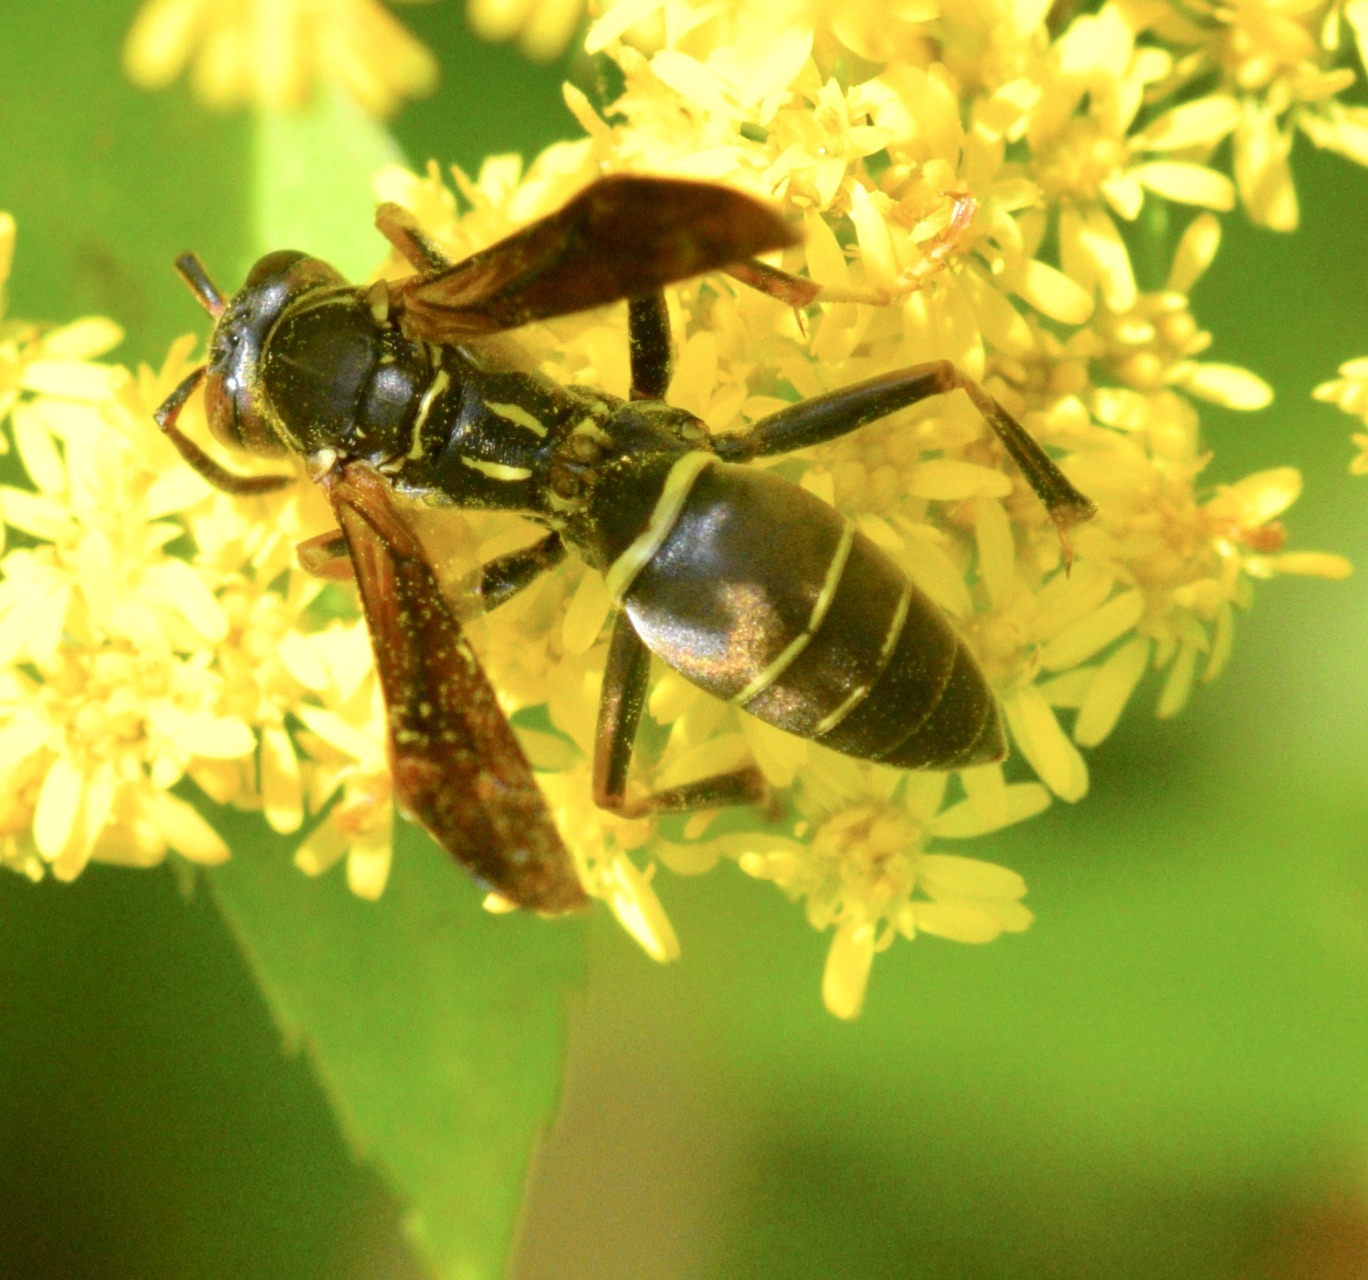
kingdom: Animalia
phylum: Arthropoda
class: Insecta
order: Hymenoptera
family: Eumenidae
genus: Polistes
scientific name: Polistes fuscatus
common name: Dark paper wasp
